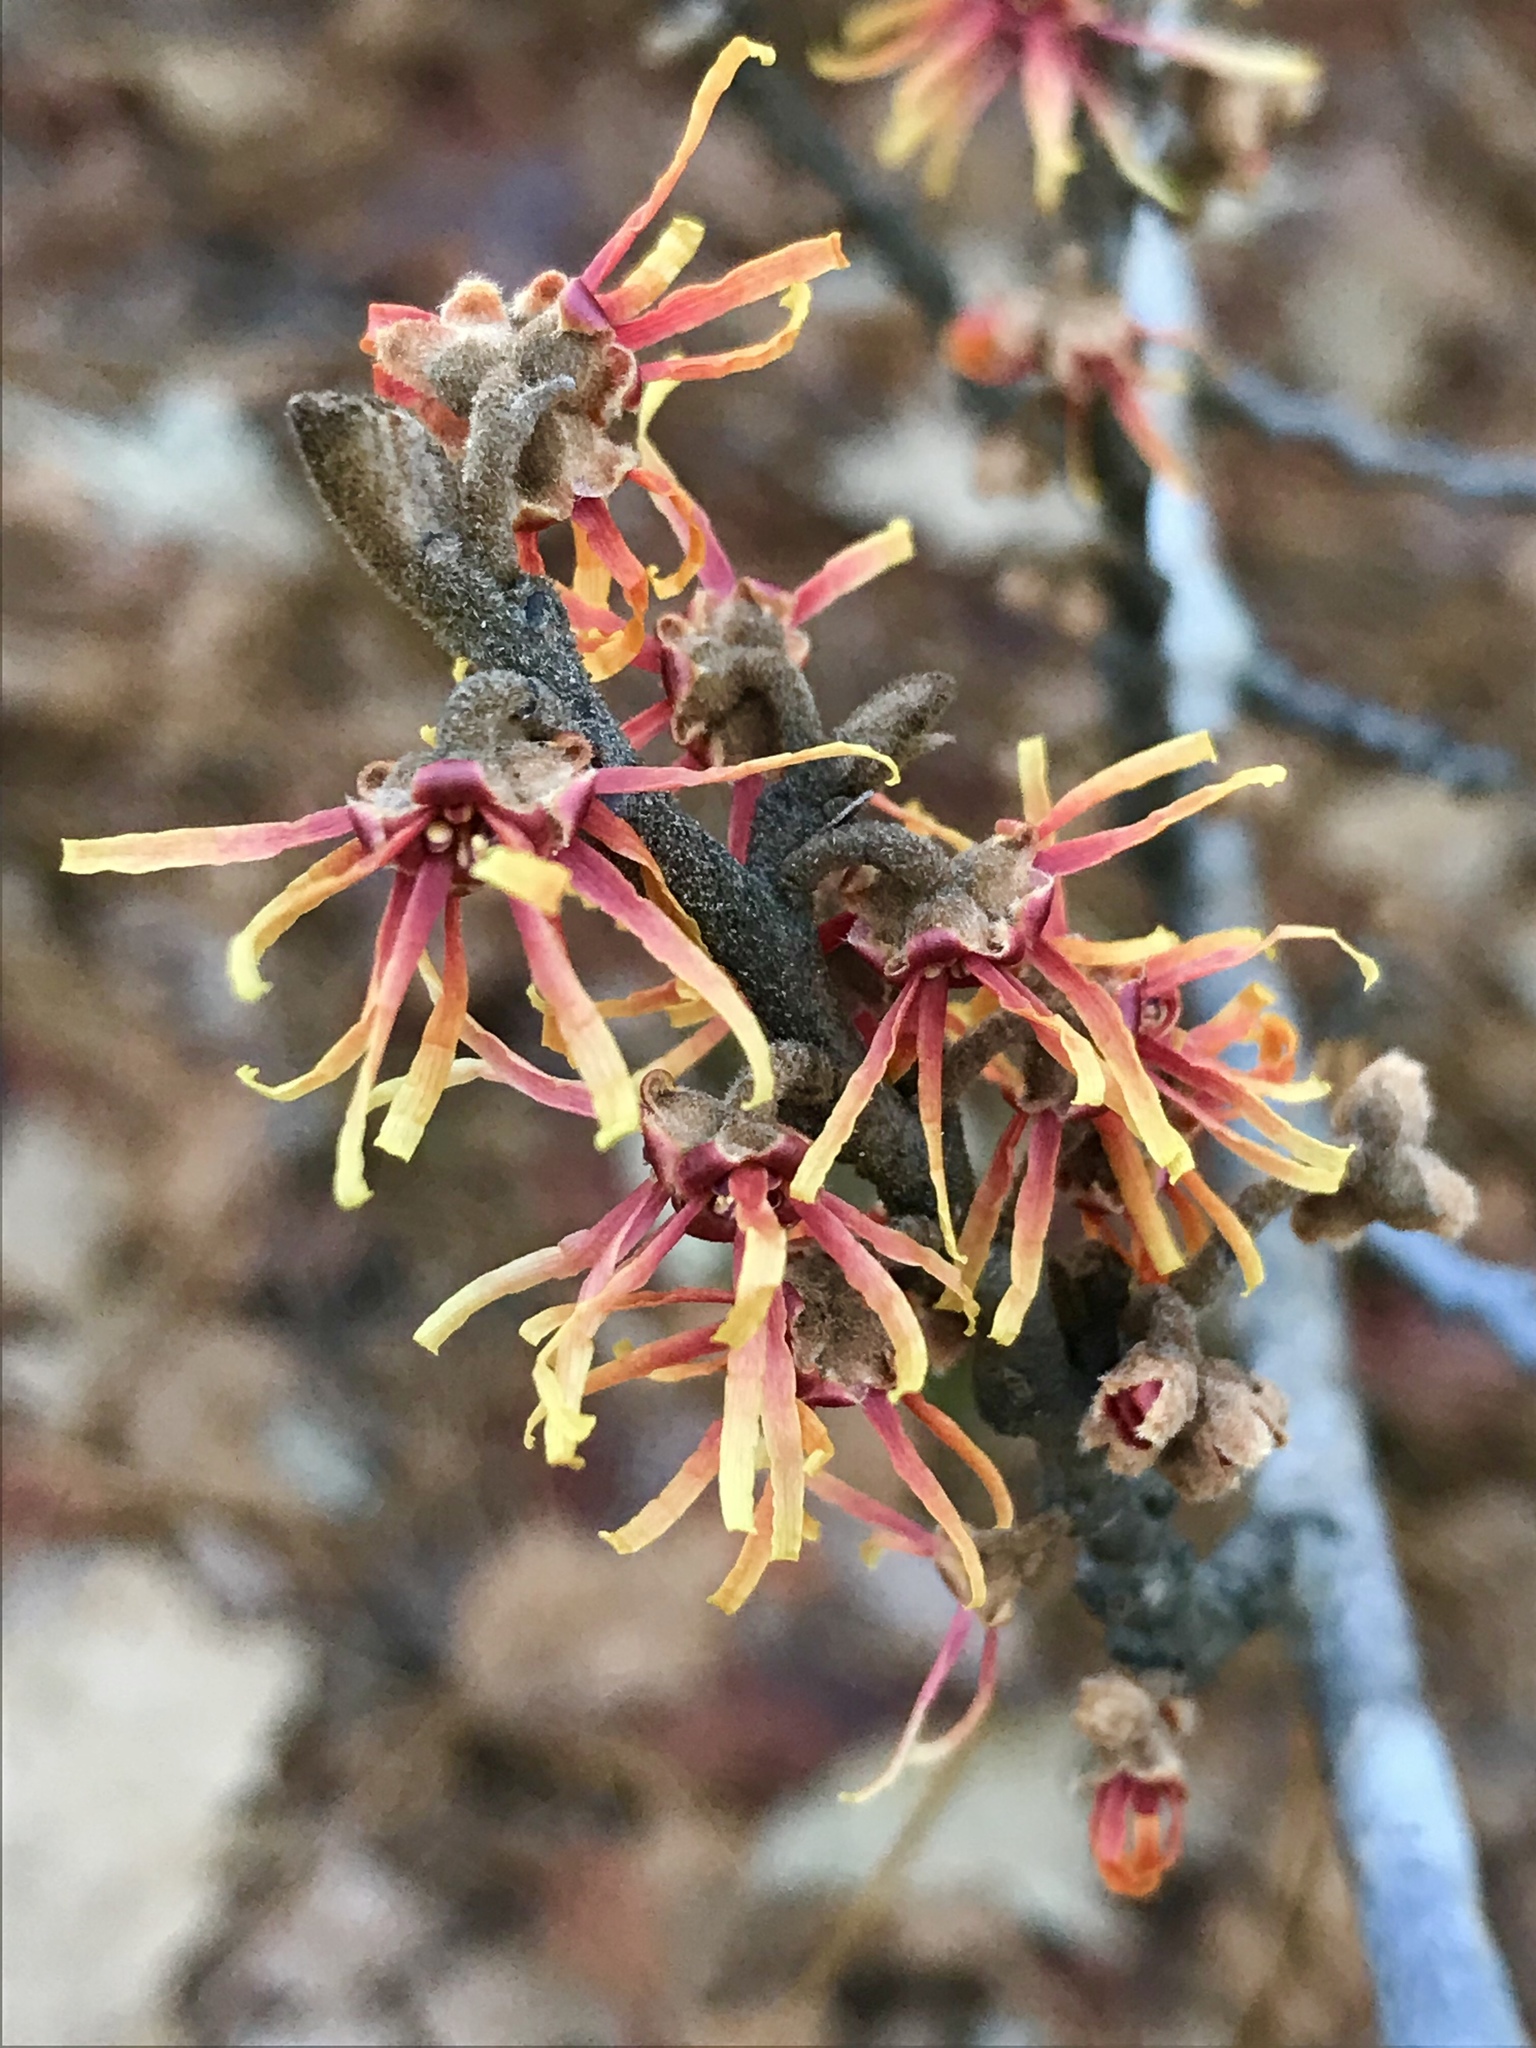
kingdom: Plantae
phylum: Tracheophyta
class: Magnoliopsida
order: Saxifragales
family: Hamamelidaceae
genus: Hamamelis
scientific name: Hamamelis ovalis
